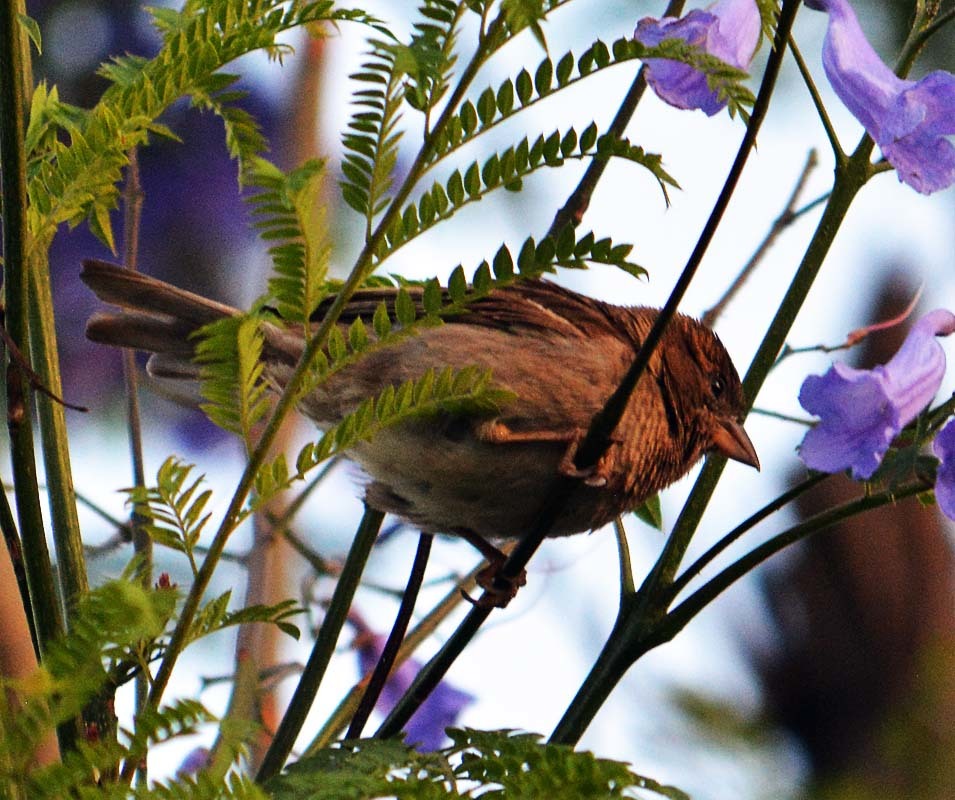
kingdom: Animalia
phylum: Chordata
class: Aves
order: Passeriformes
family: Passeridae
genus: Passer
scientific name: Passer domesticus
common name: House sparrow
